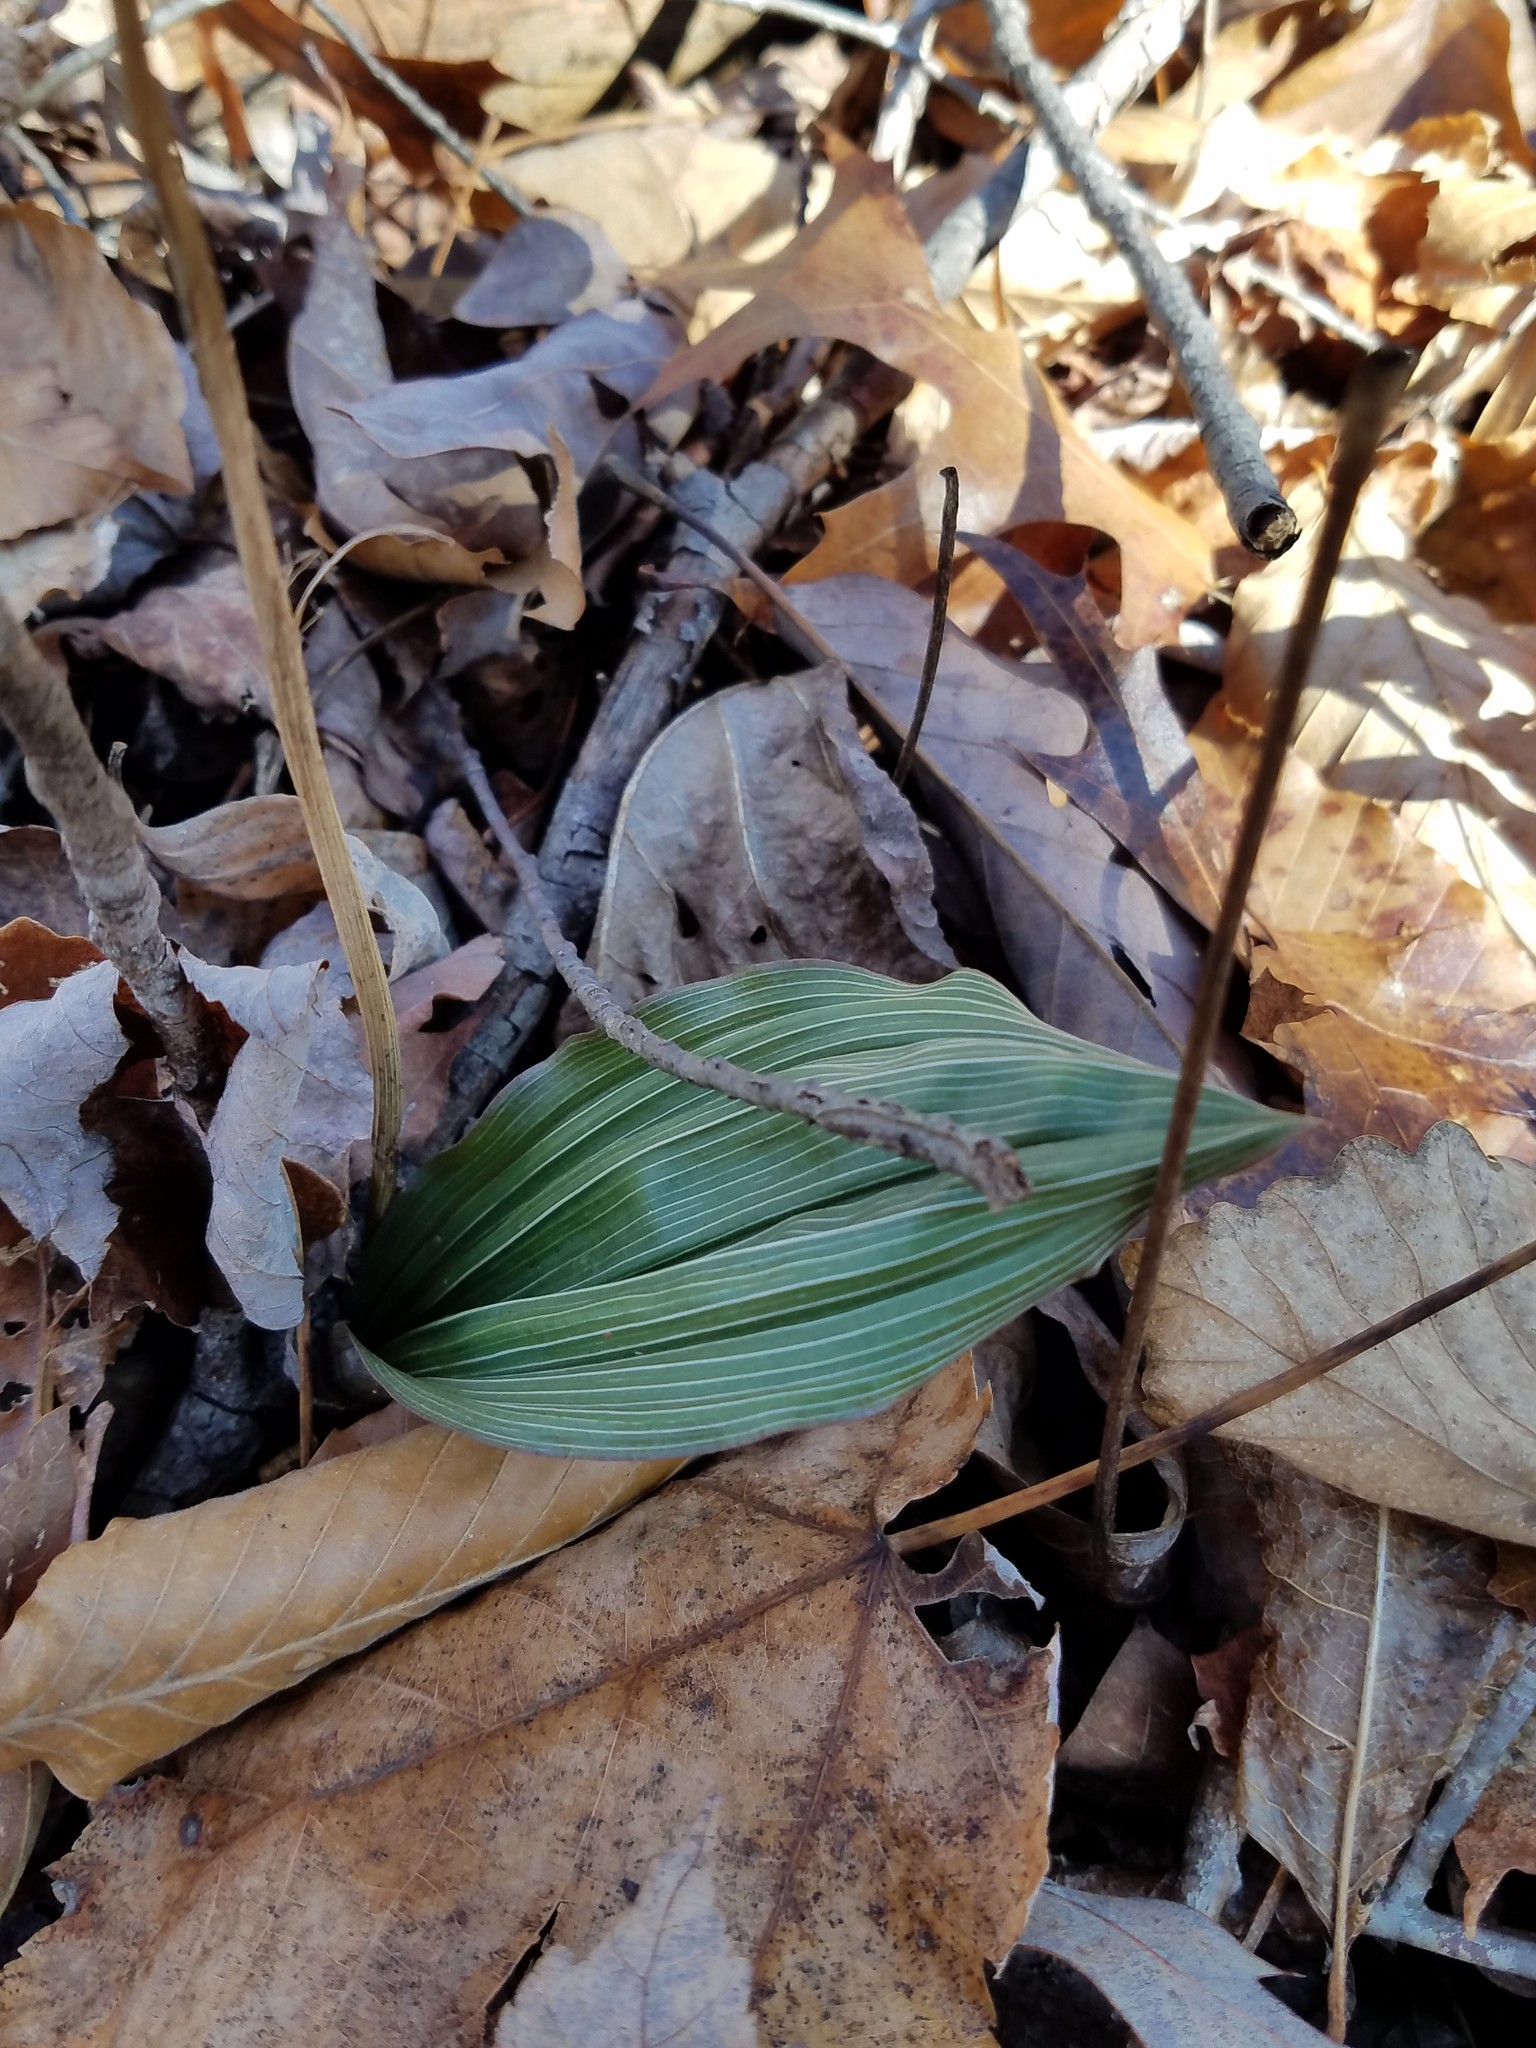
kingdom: Plantae
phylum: Tracheophyta
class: Liliopsida
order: Asparagales
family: Orchidaceae
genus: Aplectrum
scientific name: Aplectrum hyemale
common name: Adam-and-eve
